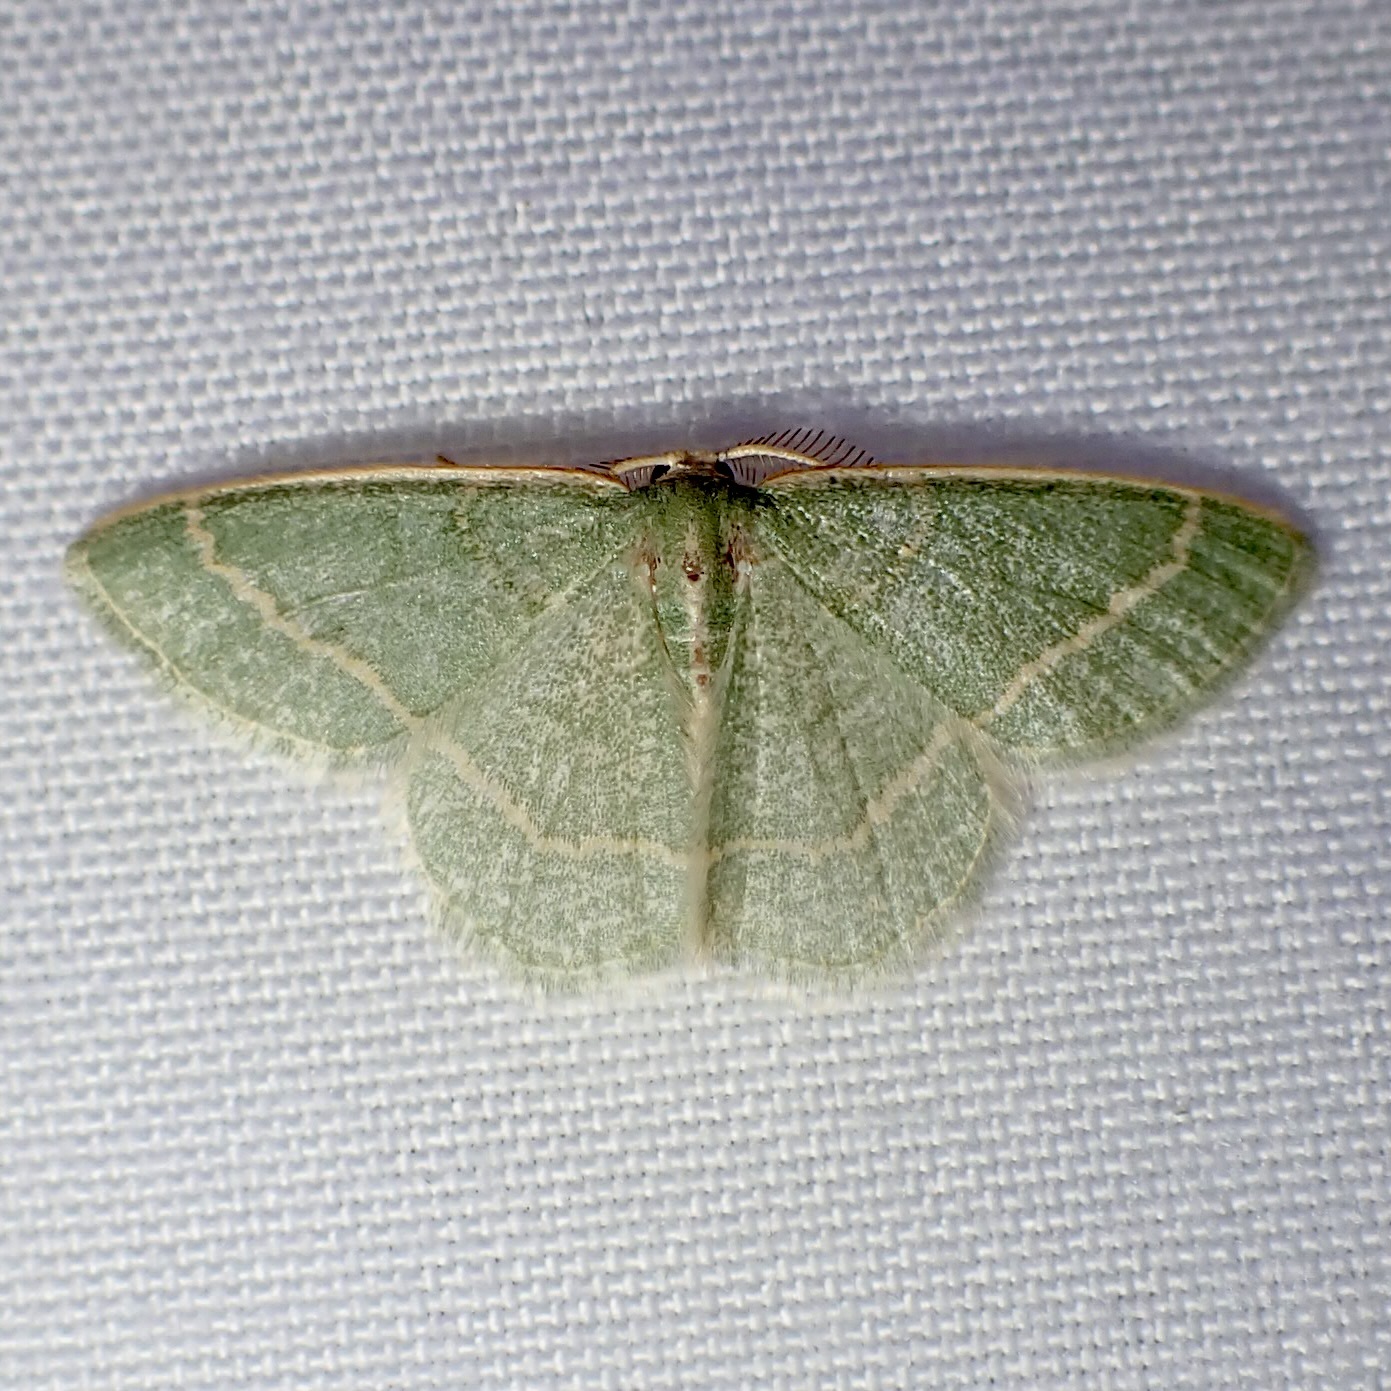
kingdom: Animalia
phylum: Arthropoda
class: Insecta
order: Lepidoptera
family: Geometridae
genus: Chlorochlamys
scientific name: Chlorochlamys appellaria
